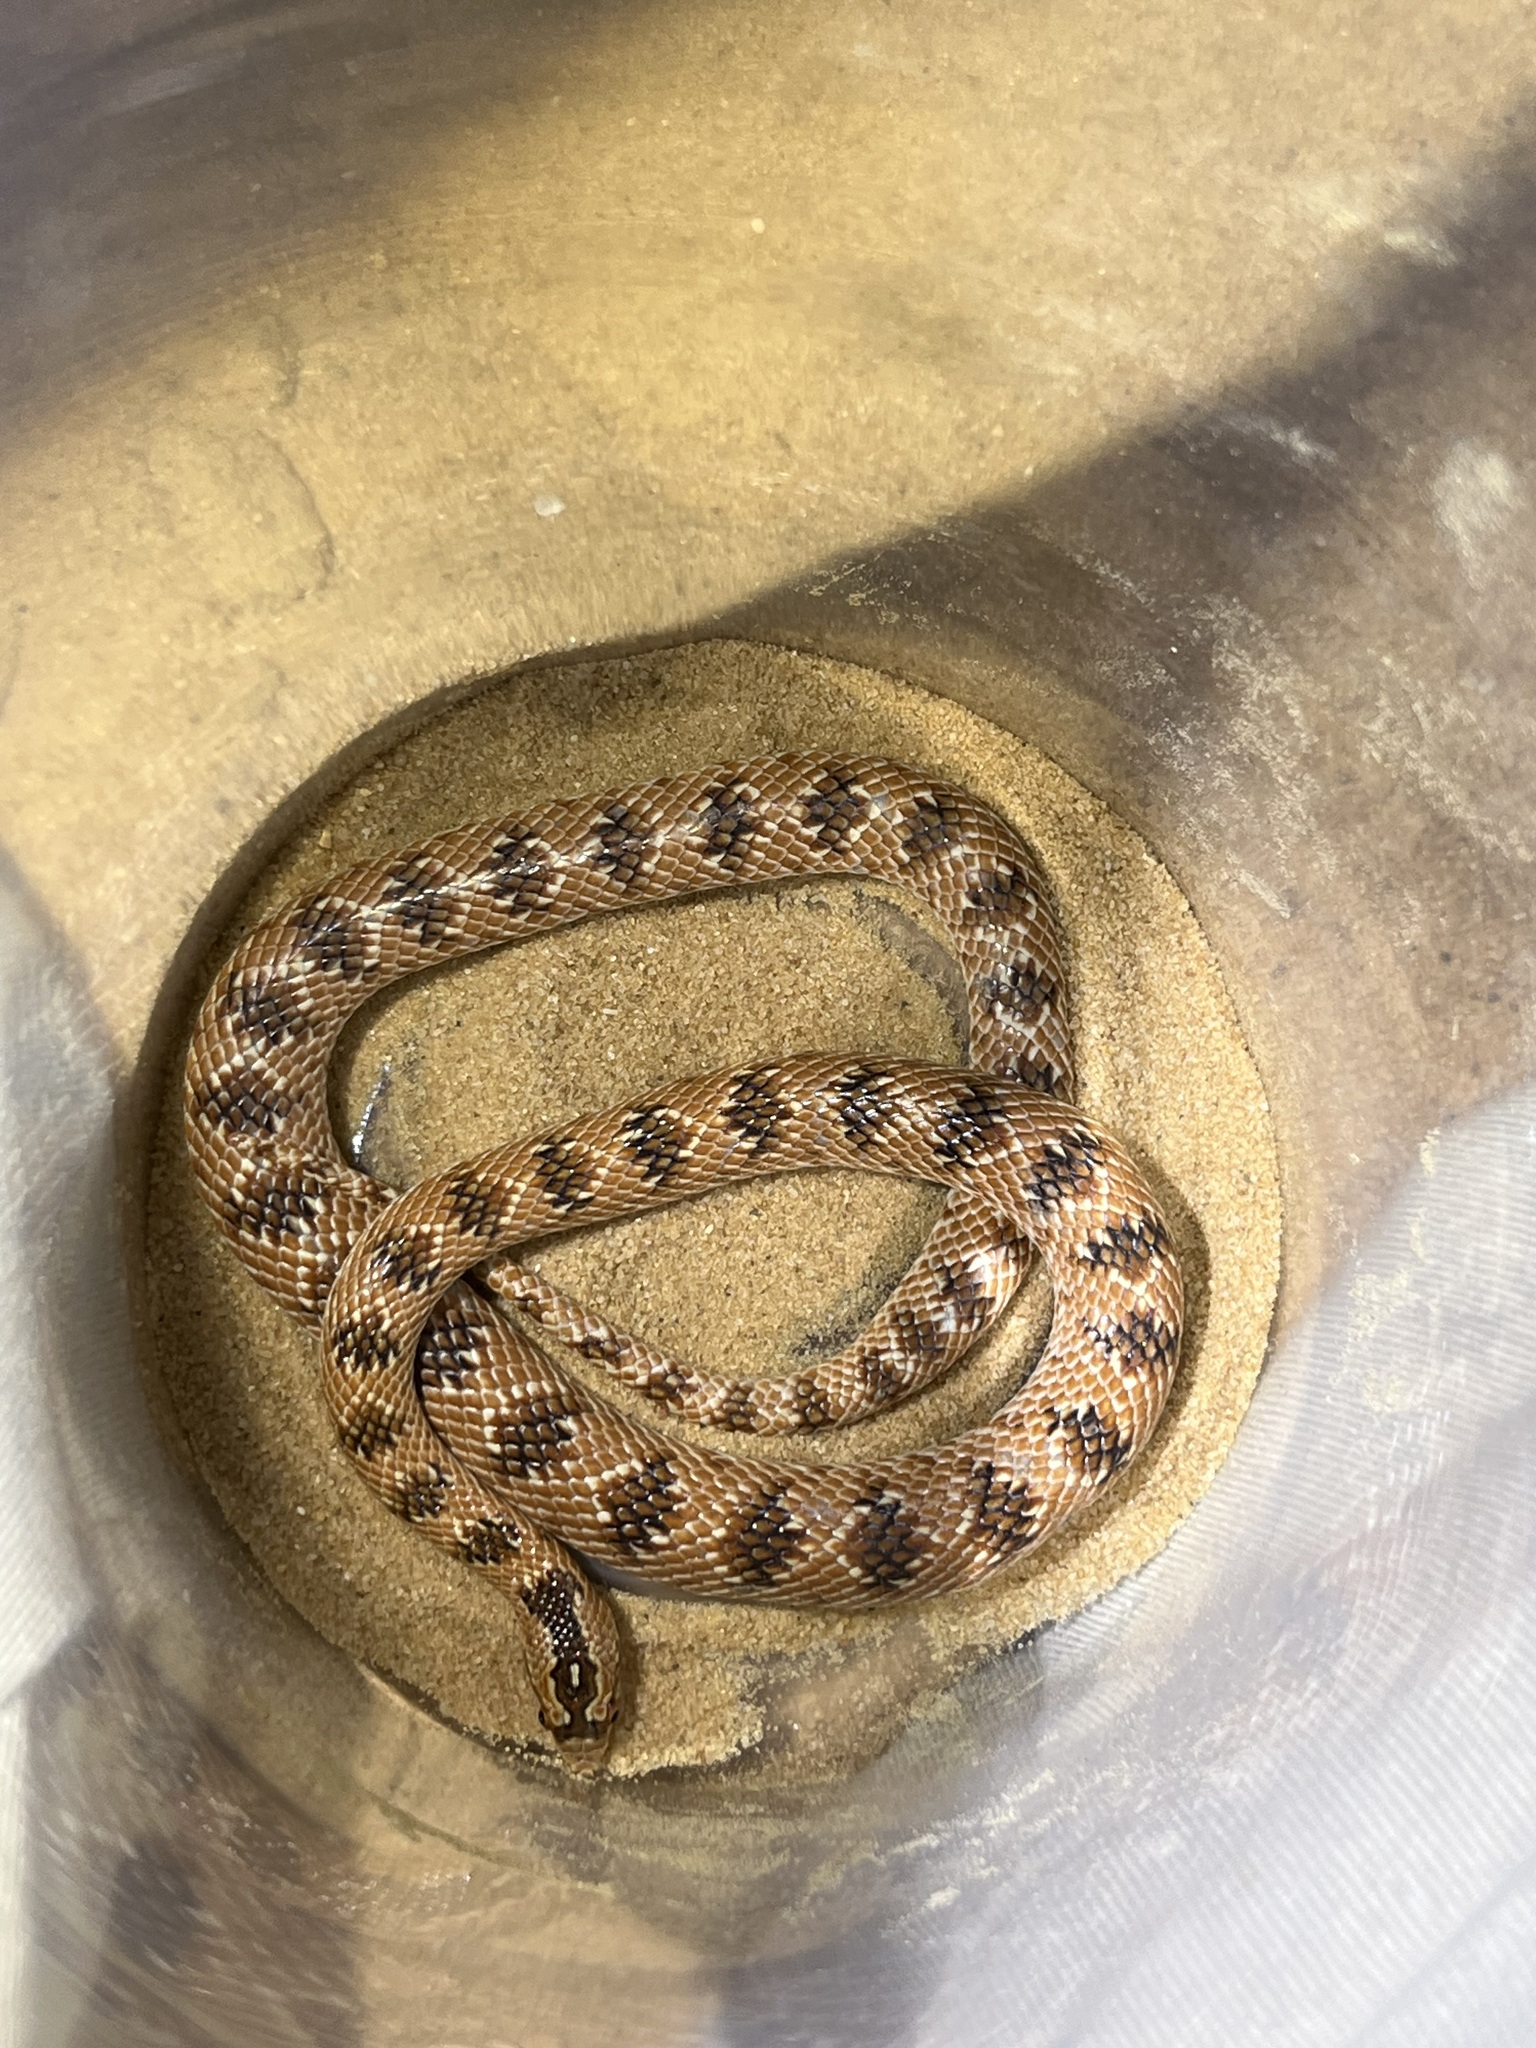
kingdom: Animalia
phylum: Chordata
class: Squamata
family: Colubridae
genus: Lytorhynchus
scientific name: Lytorhynchus diadema
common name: Awl-headed snake
